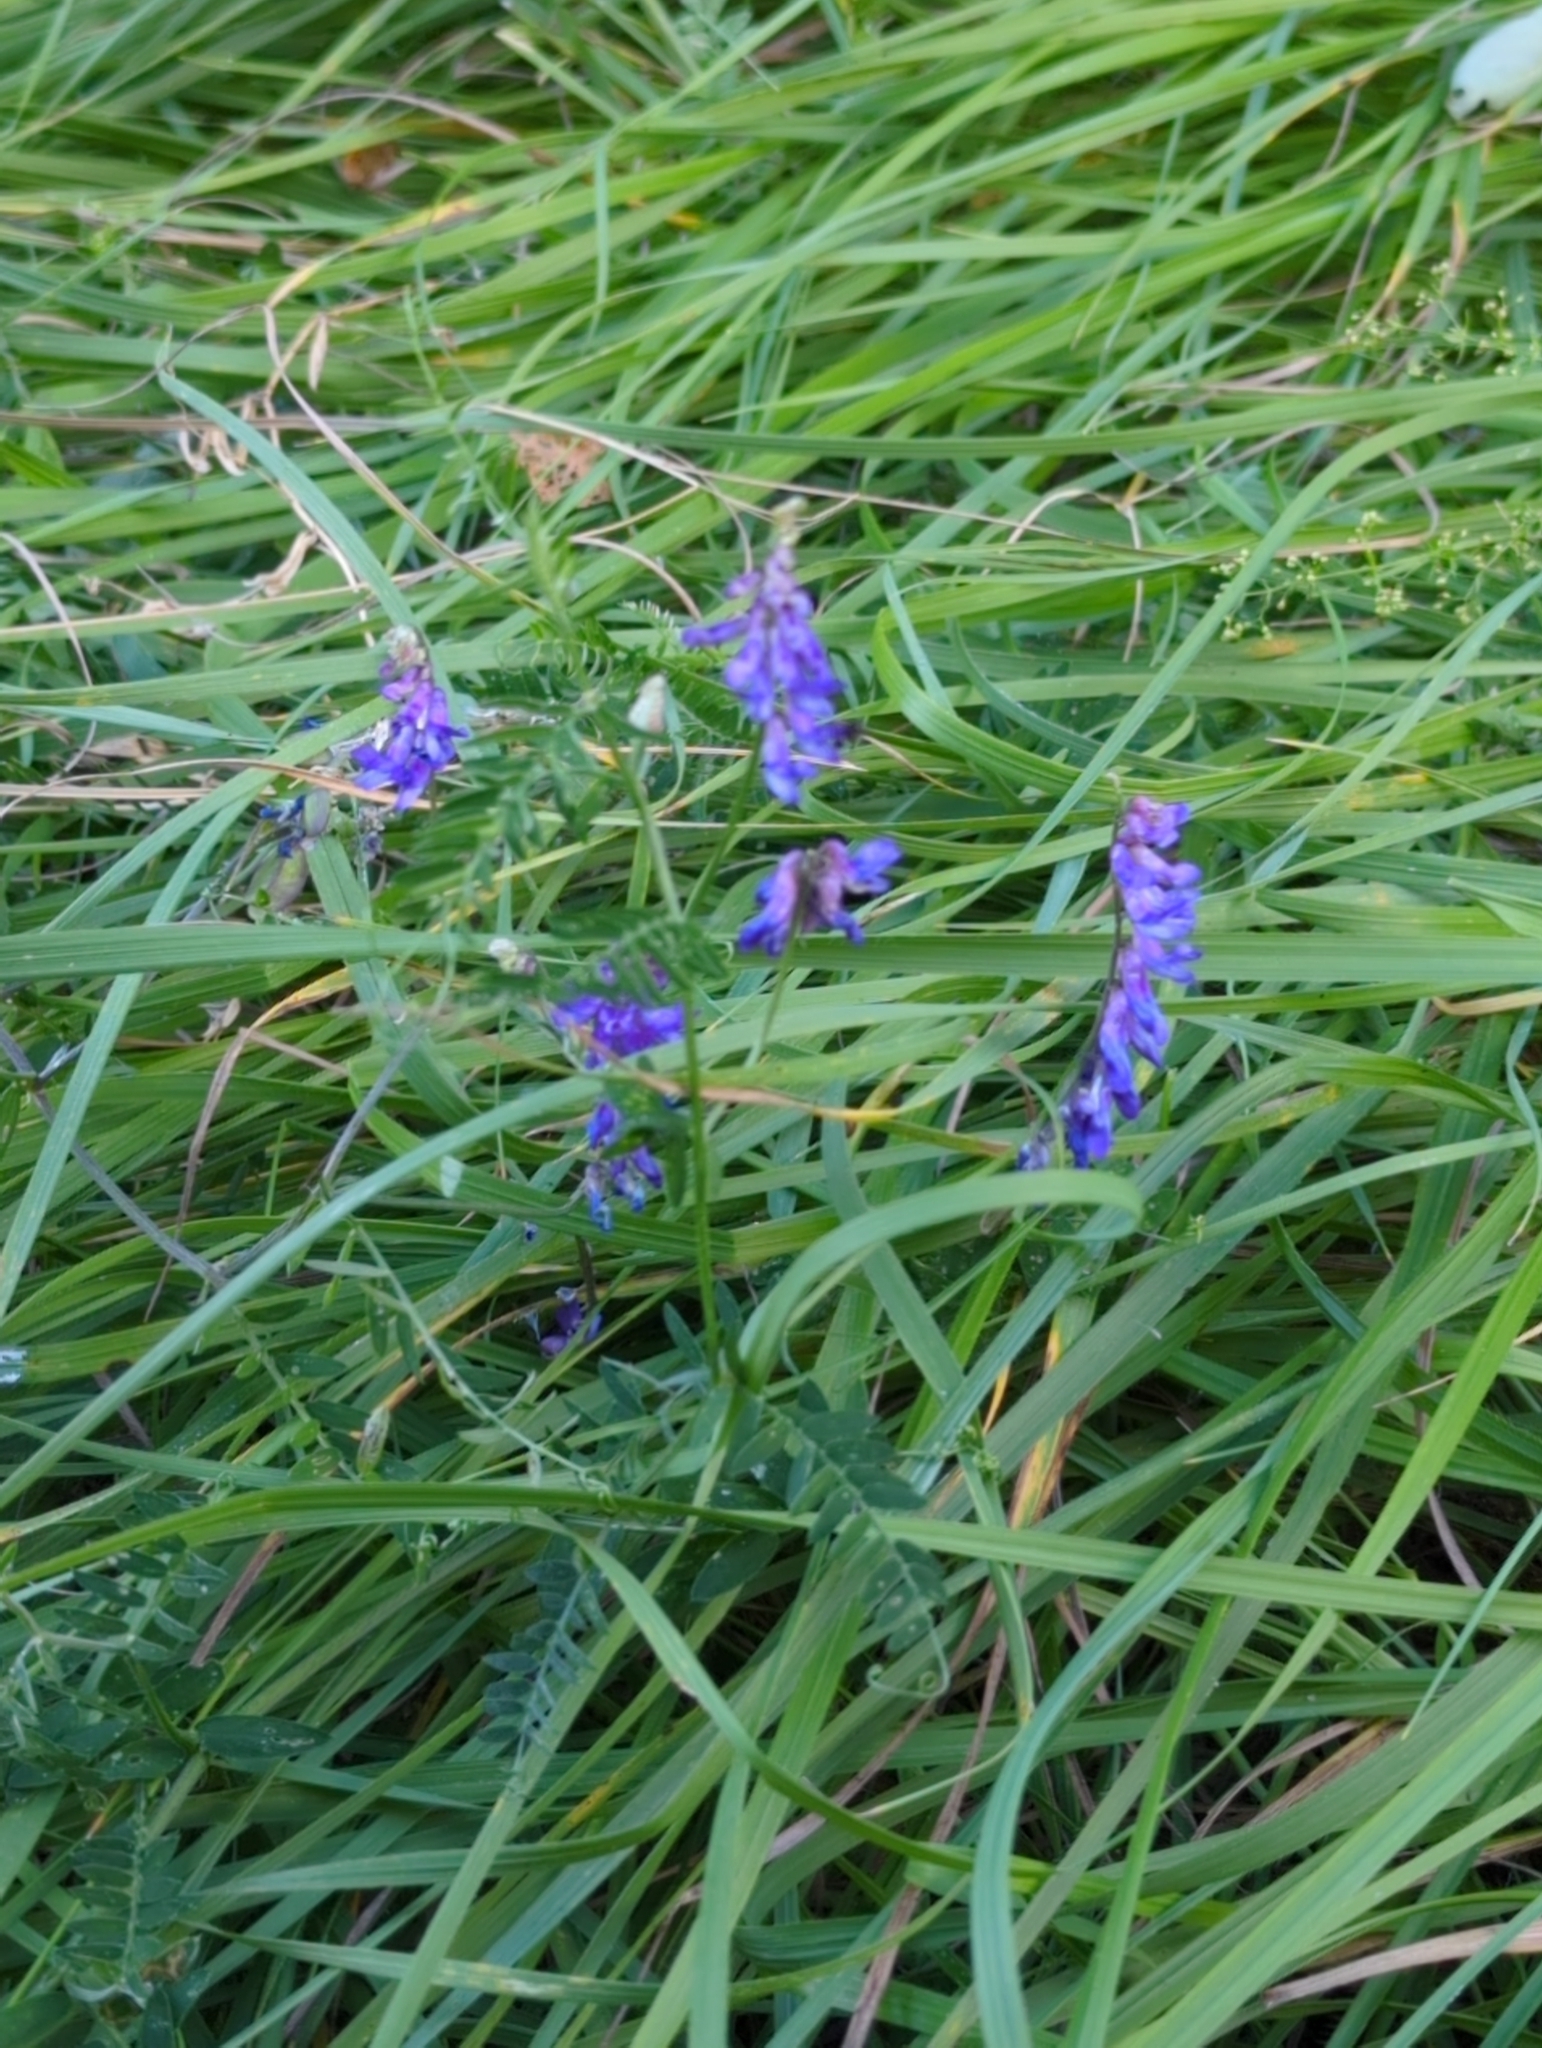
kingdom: Plantae
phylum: Tracheophyta
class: Magnoliopsida
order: Fabales
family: Fabaceae
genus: Vicia
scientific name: Vicia cracca
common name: Bird vetch
